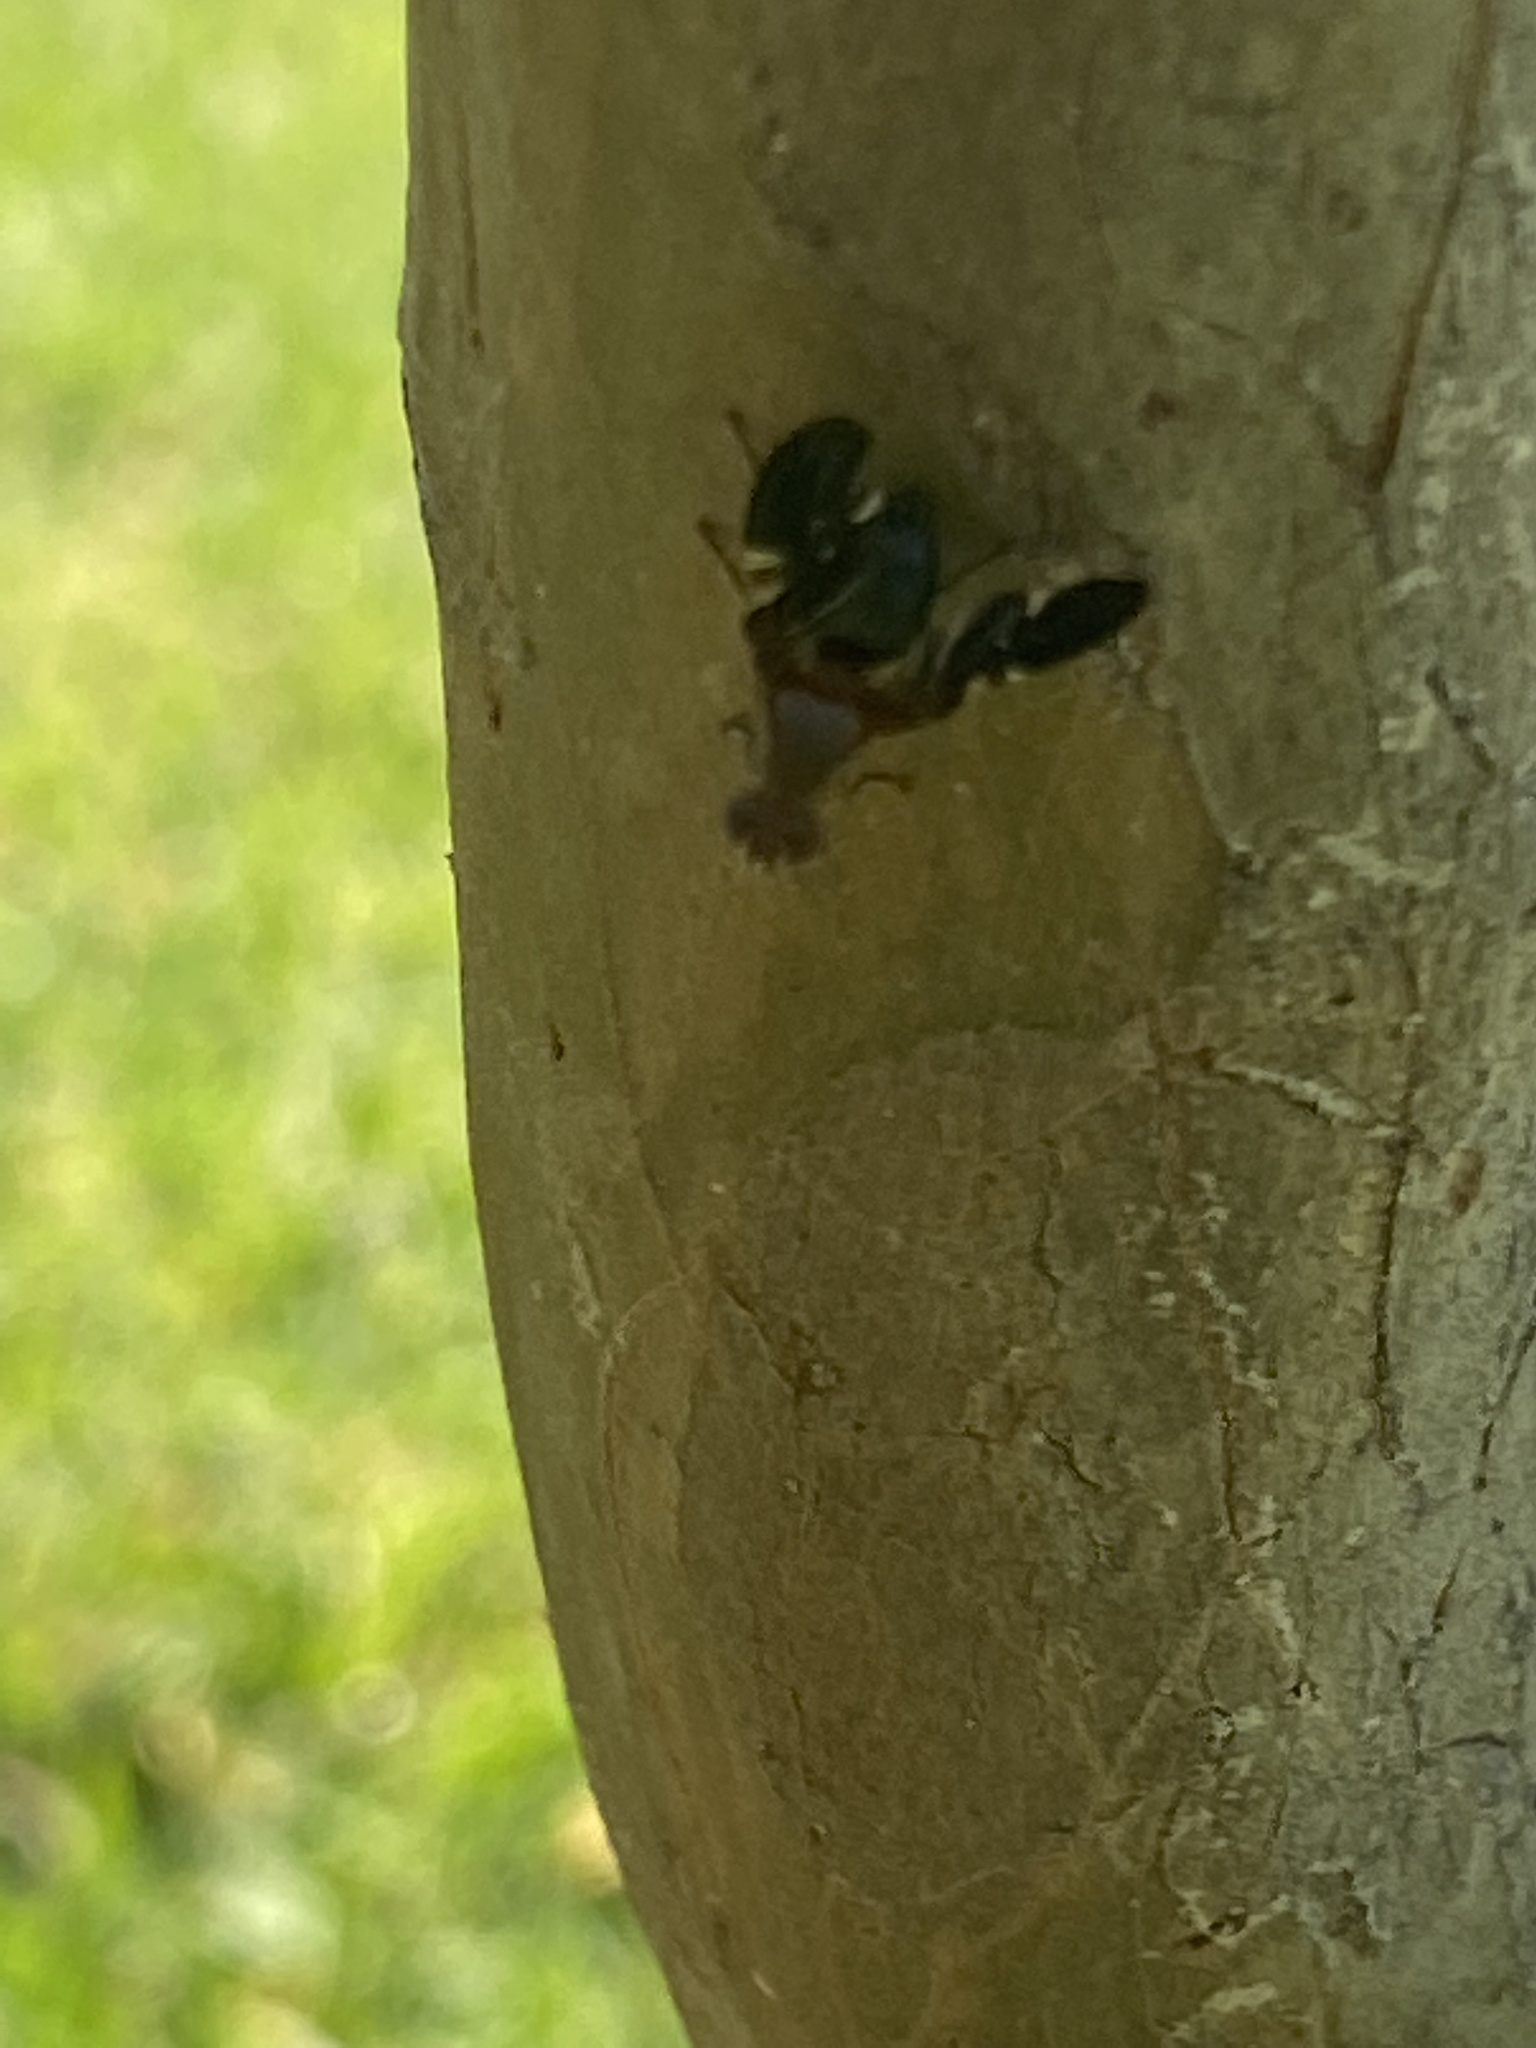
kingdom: Animalia
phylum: Arthropoda
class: Insecta
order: Diptera
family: Ulidiidae
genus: Delphinia
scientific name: Delphinia picta
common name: Common picture-winged fly
